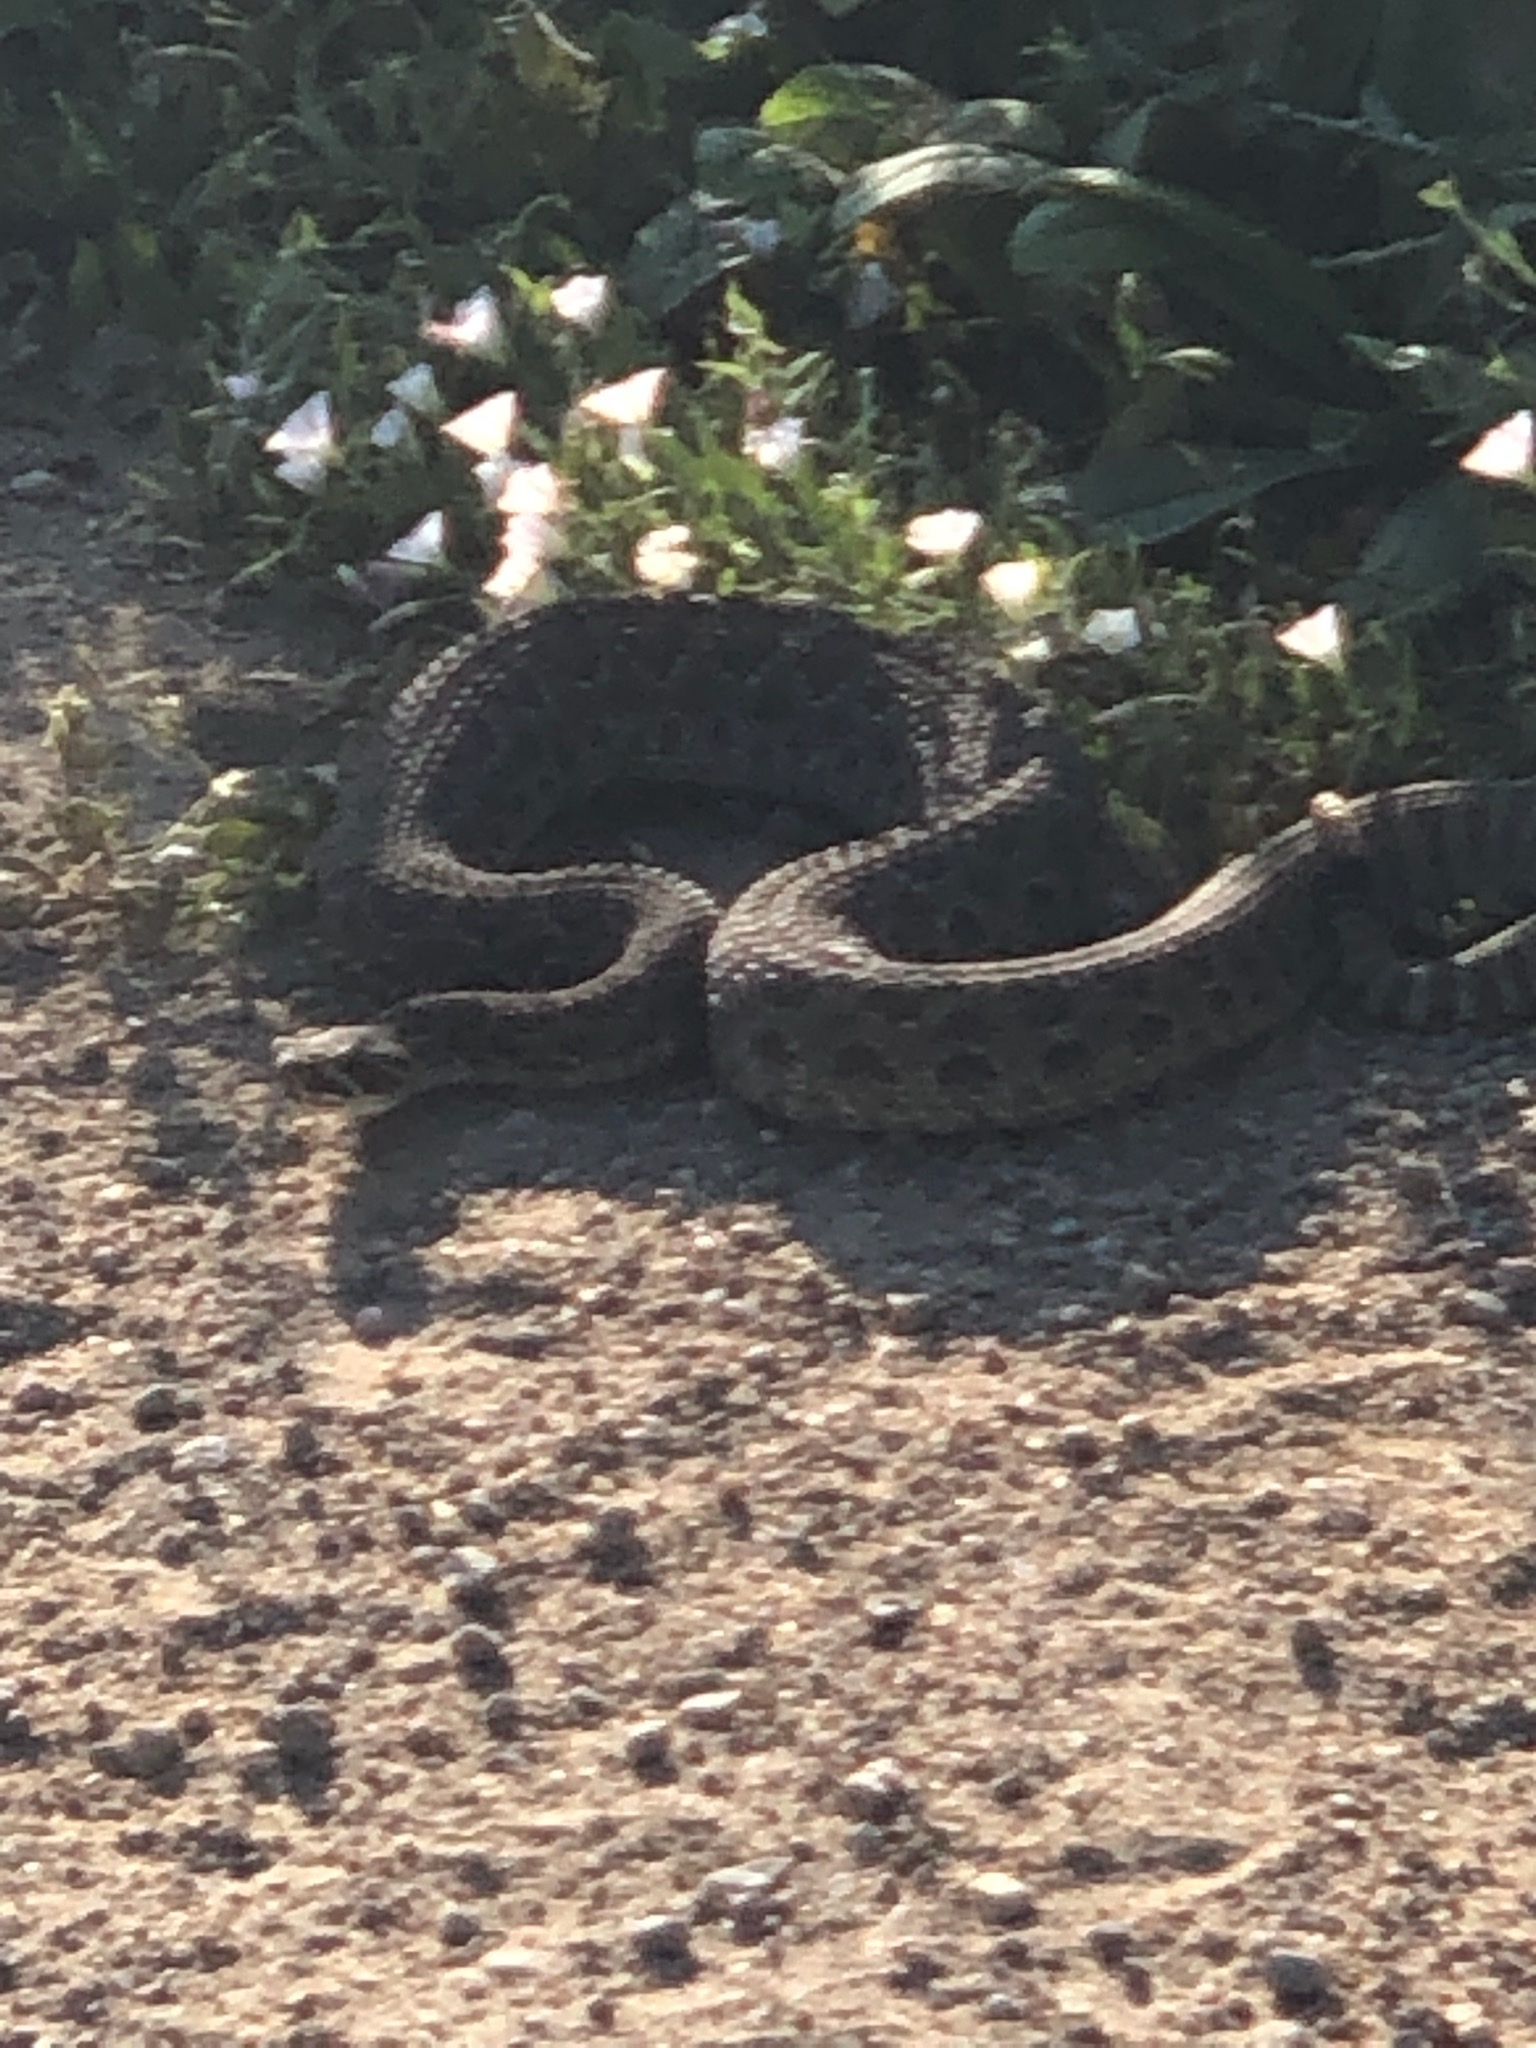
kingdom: Animalia
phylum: Chordata
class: Squamata
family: Viperidae
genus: Crotalus
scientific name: Crotalus viridis
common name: Prairie rattlesnake
